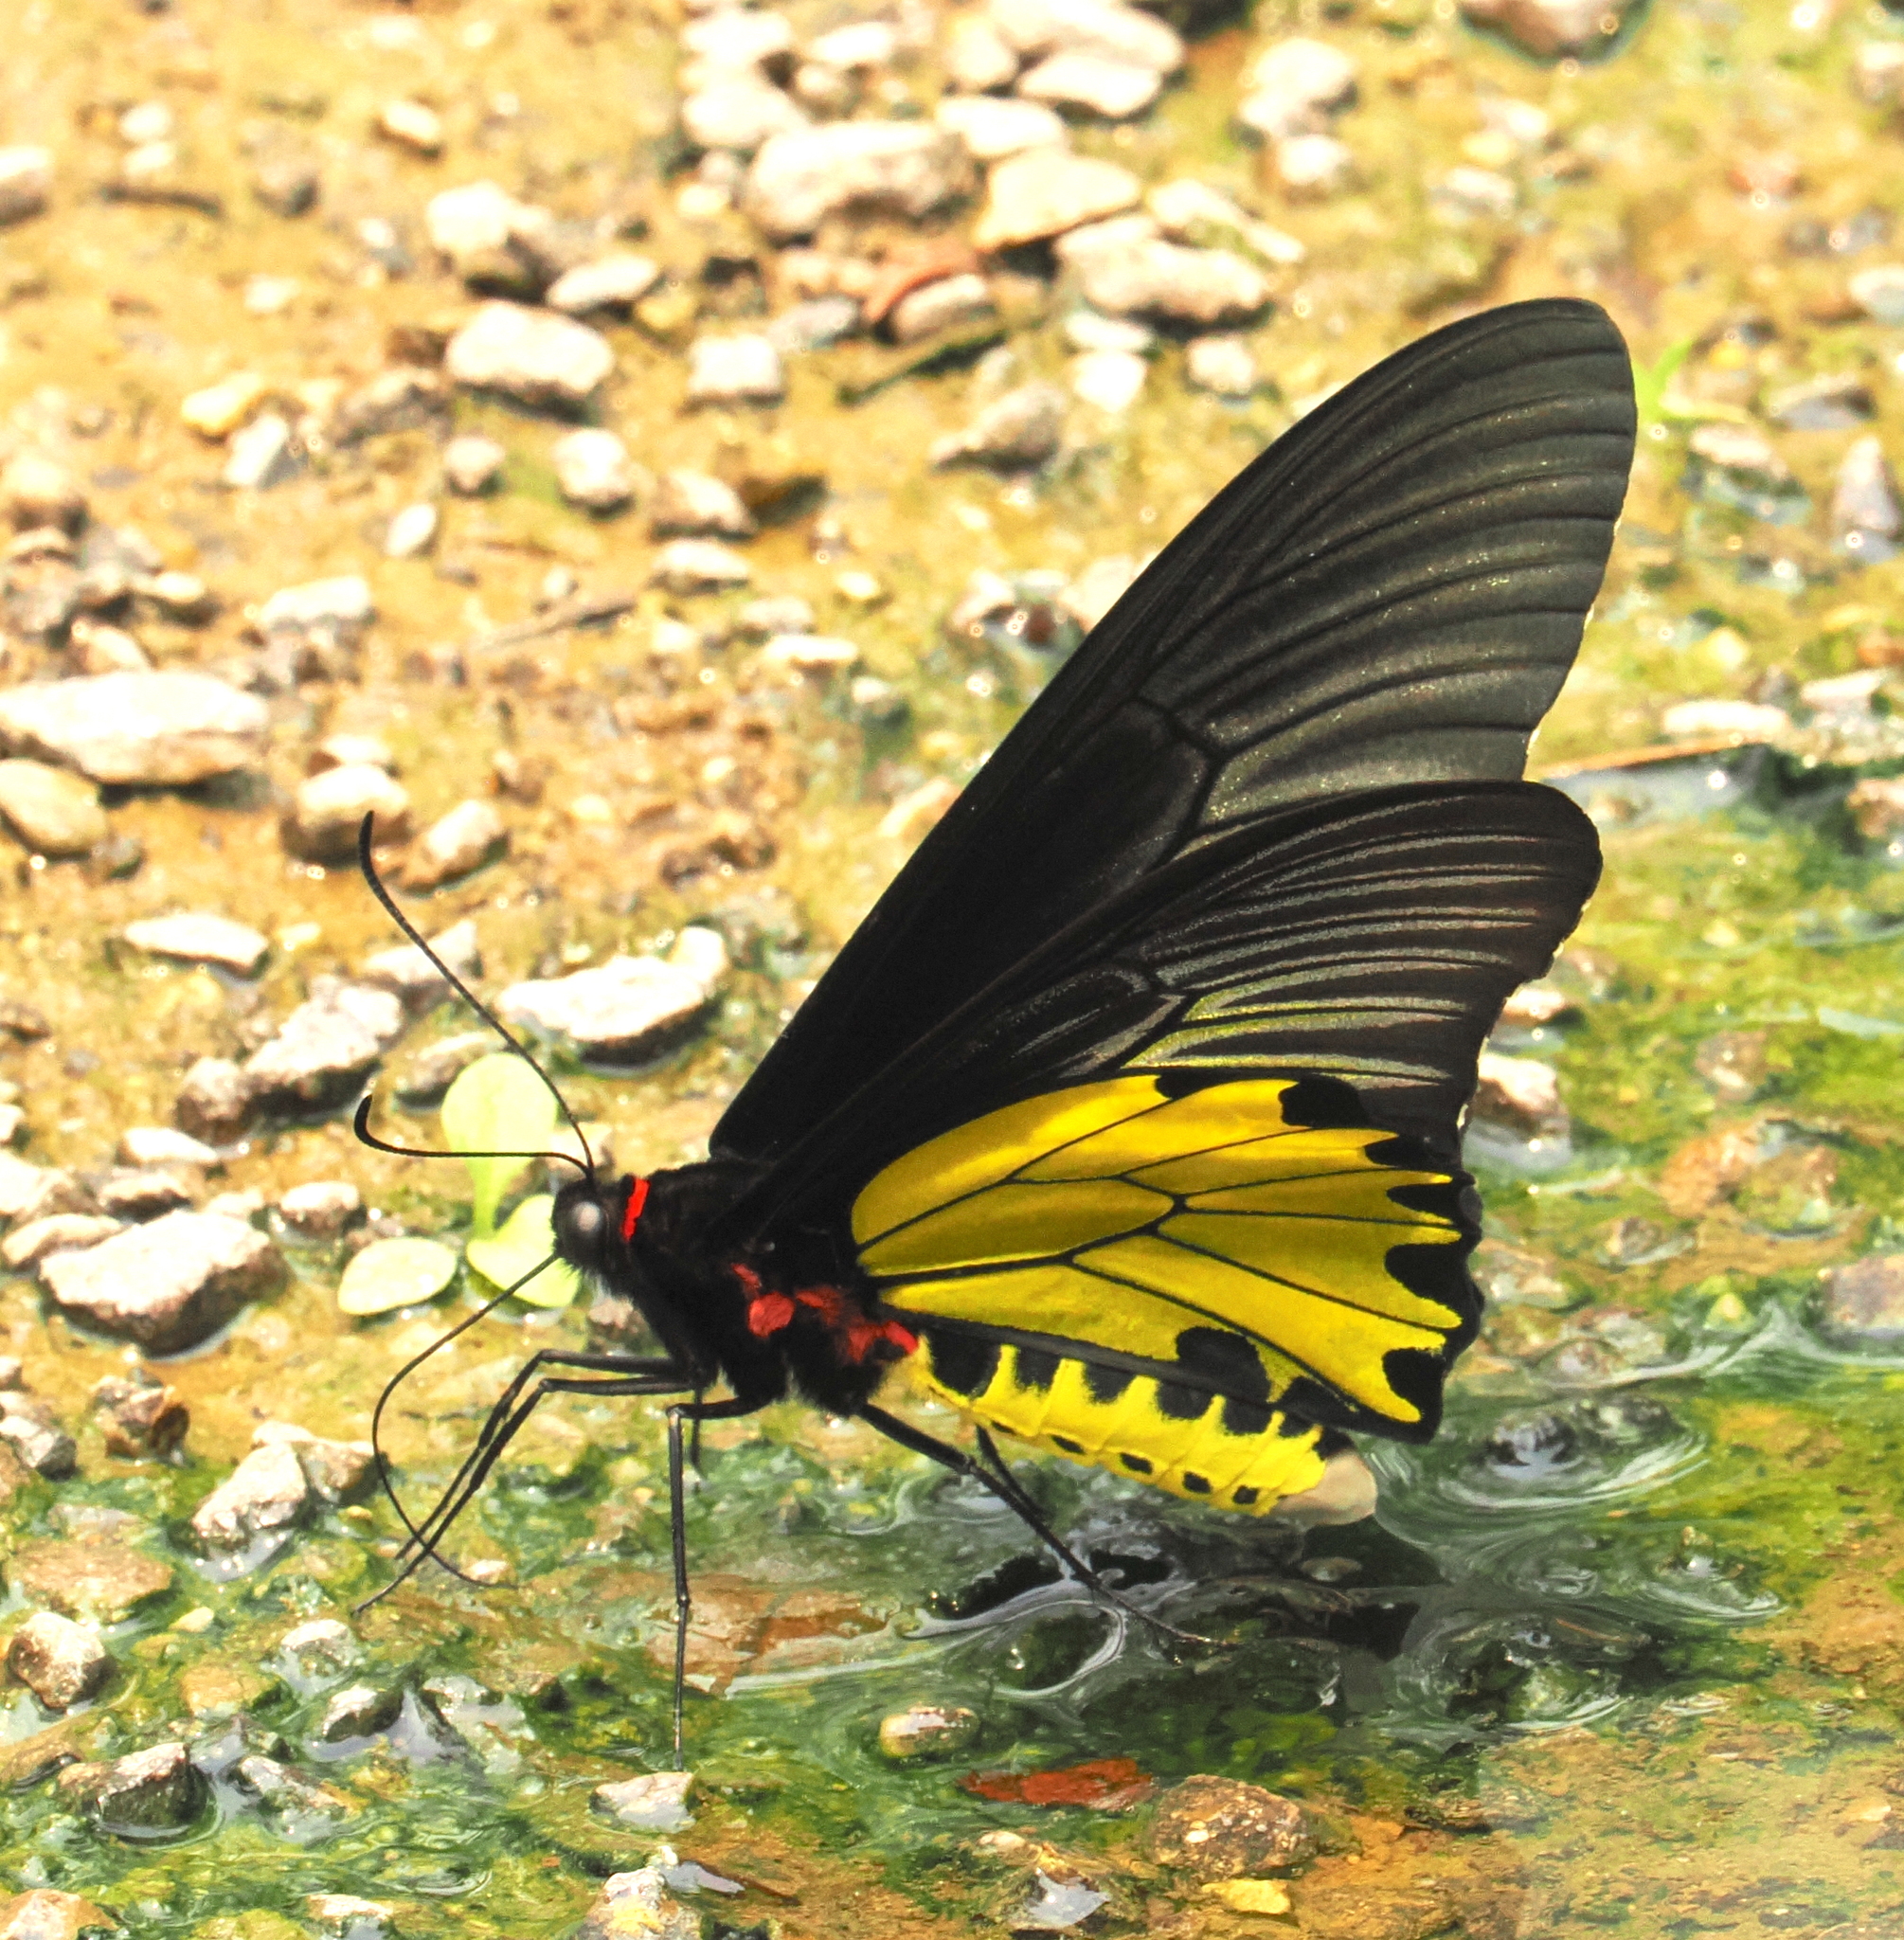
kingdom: Animalia
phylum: Arthropoda
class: Insecta
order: Lepidoptera
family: Papilionidae
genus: Troides
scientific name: Troides aeacus
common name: Golden birdwing
